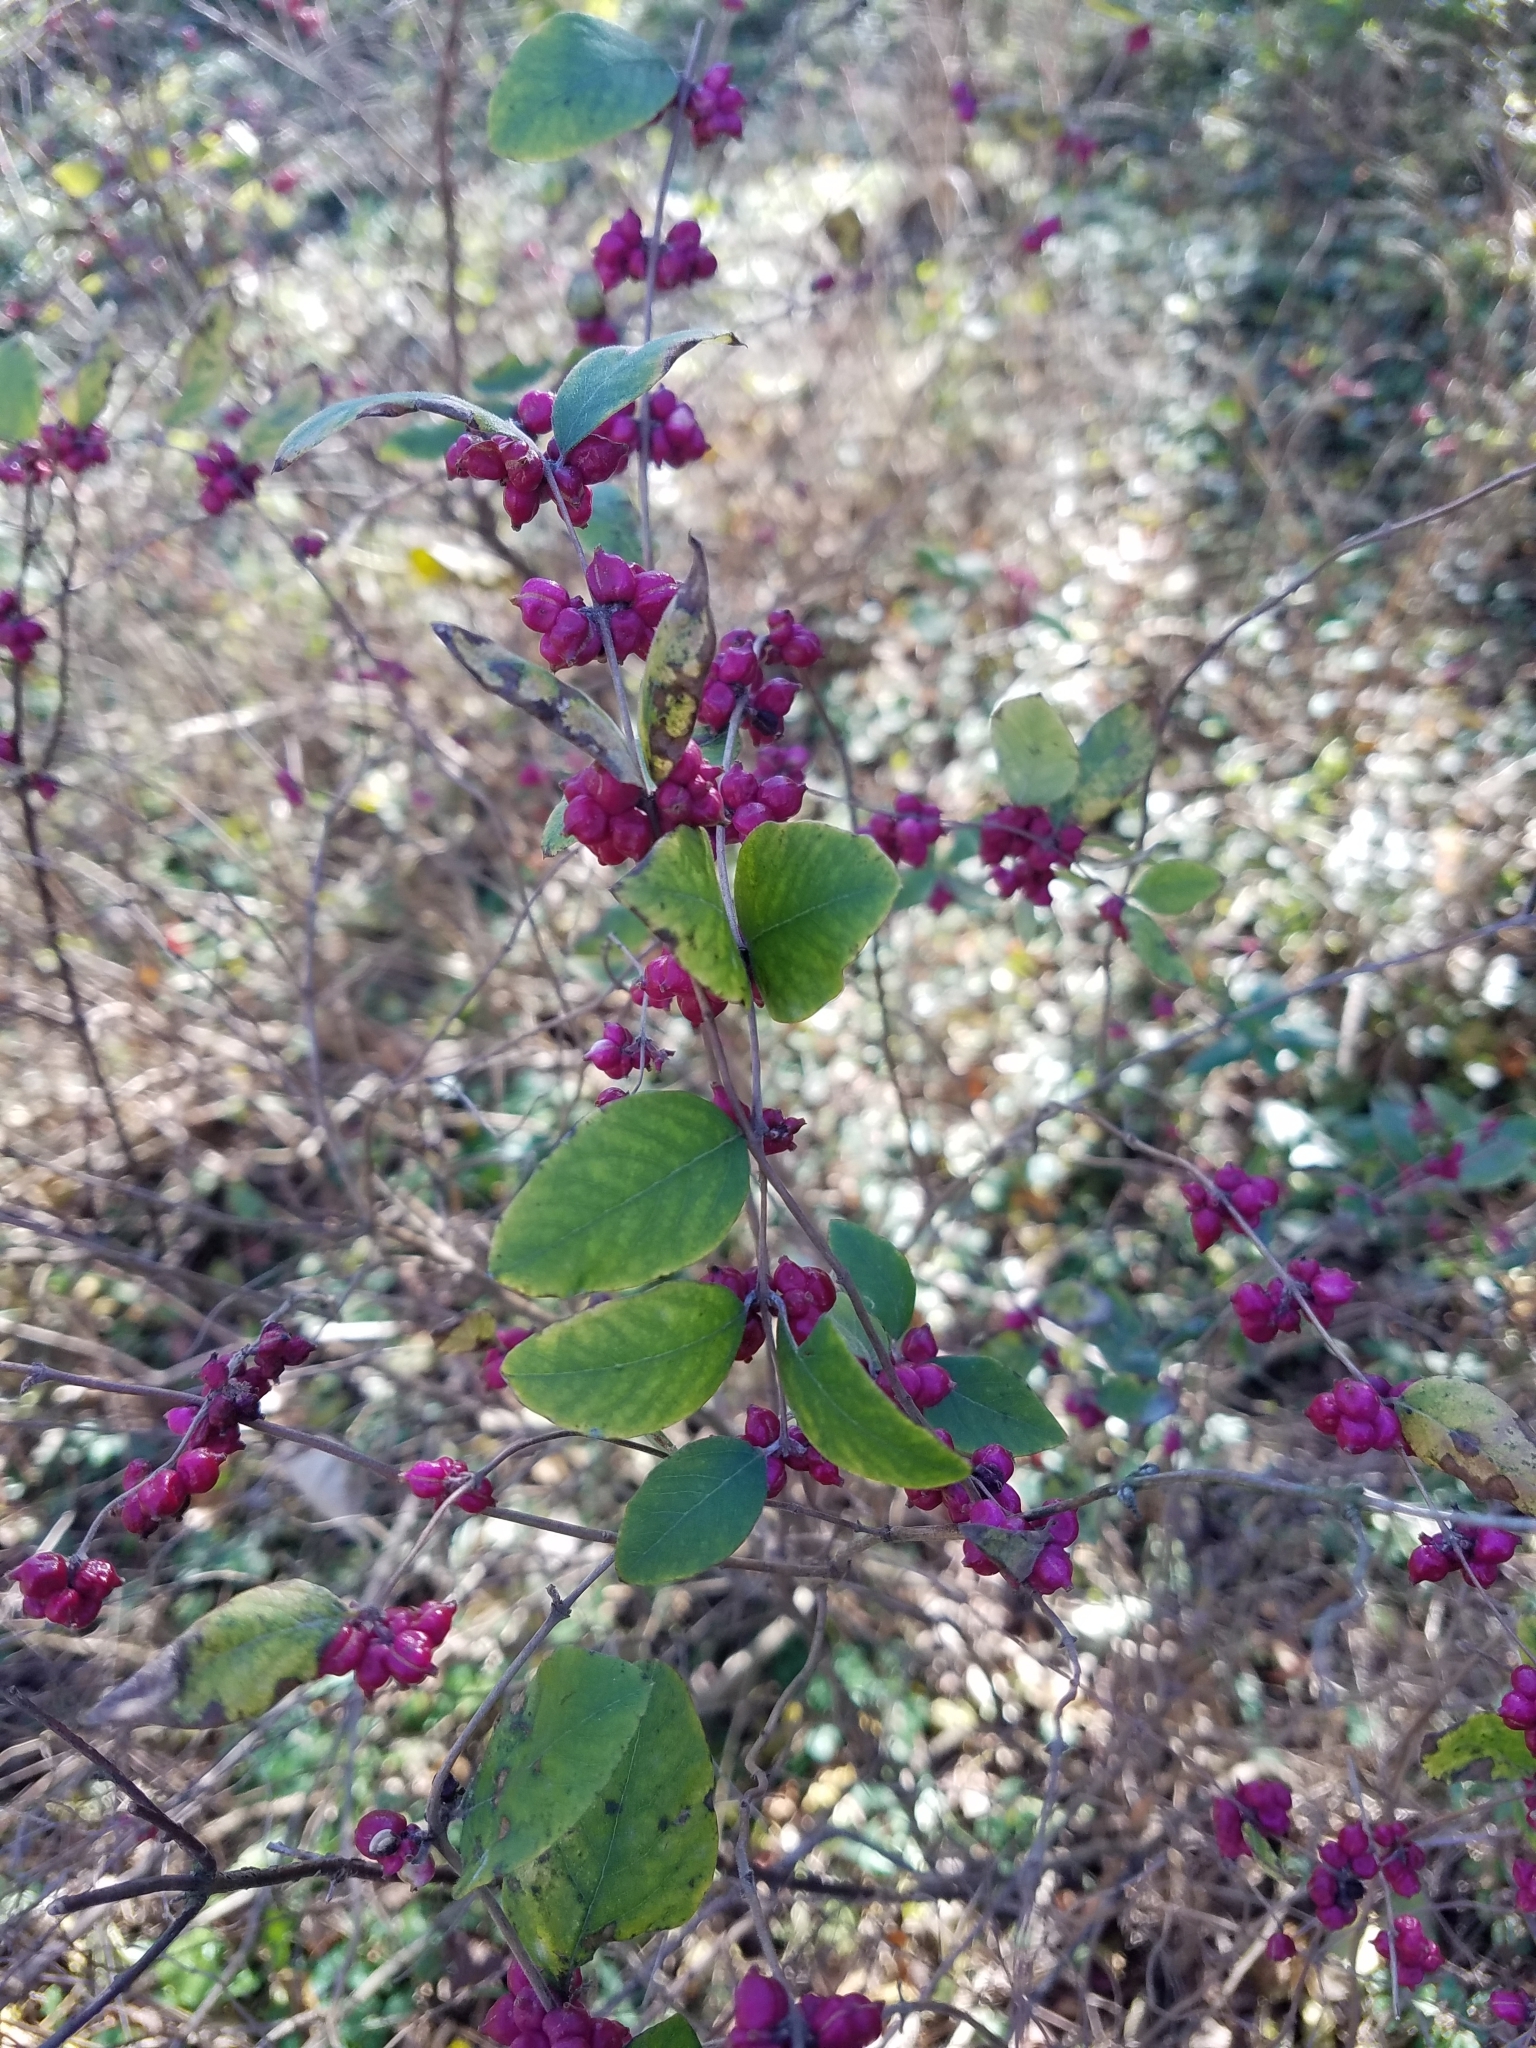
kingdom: Plantae
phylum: Tracheophyta
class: Magnoliopsida
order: Dipsacales
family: Caprifoliaceae
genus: Symphoricarpos
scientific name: Symphoricarpos orbiculatus
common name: Coralberry
